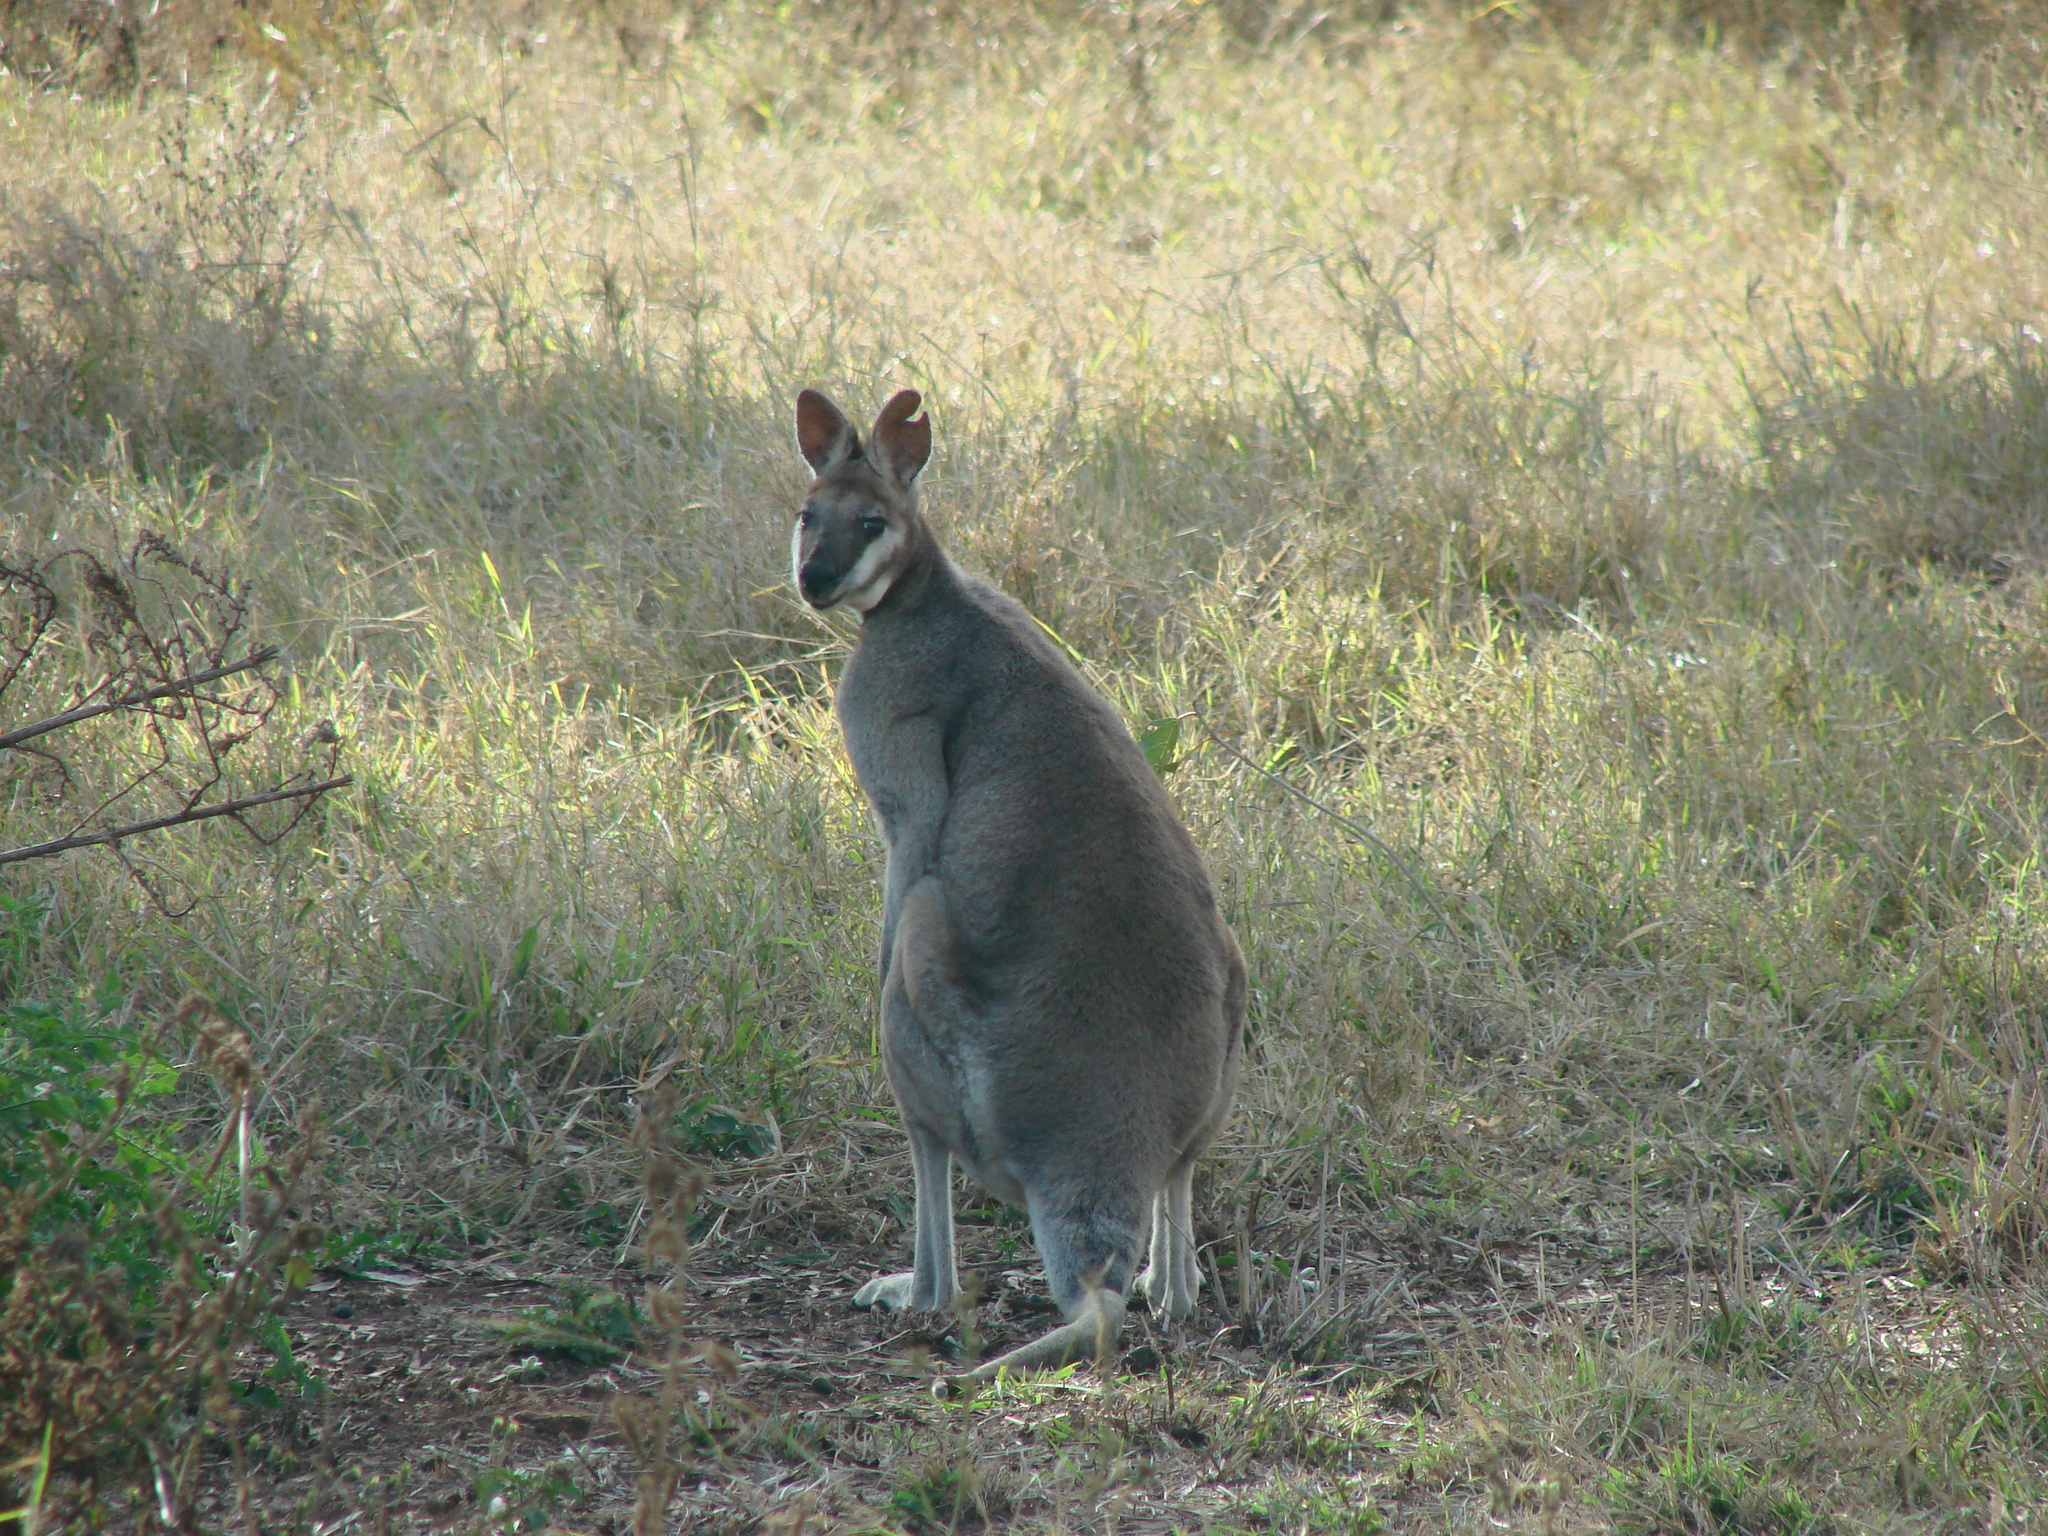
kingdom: Animalia
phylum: Chordata
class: Mammalia
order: Diprotodontia
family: Macropodidae
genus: Notamacropus
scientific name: Notamacropus parryi
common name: Whip-tailed wallaby
